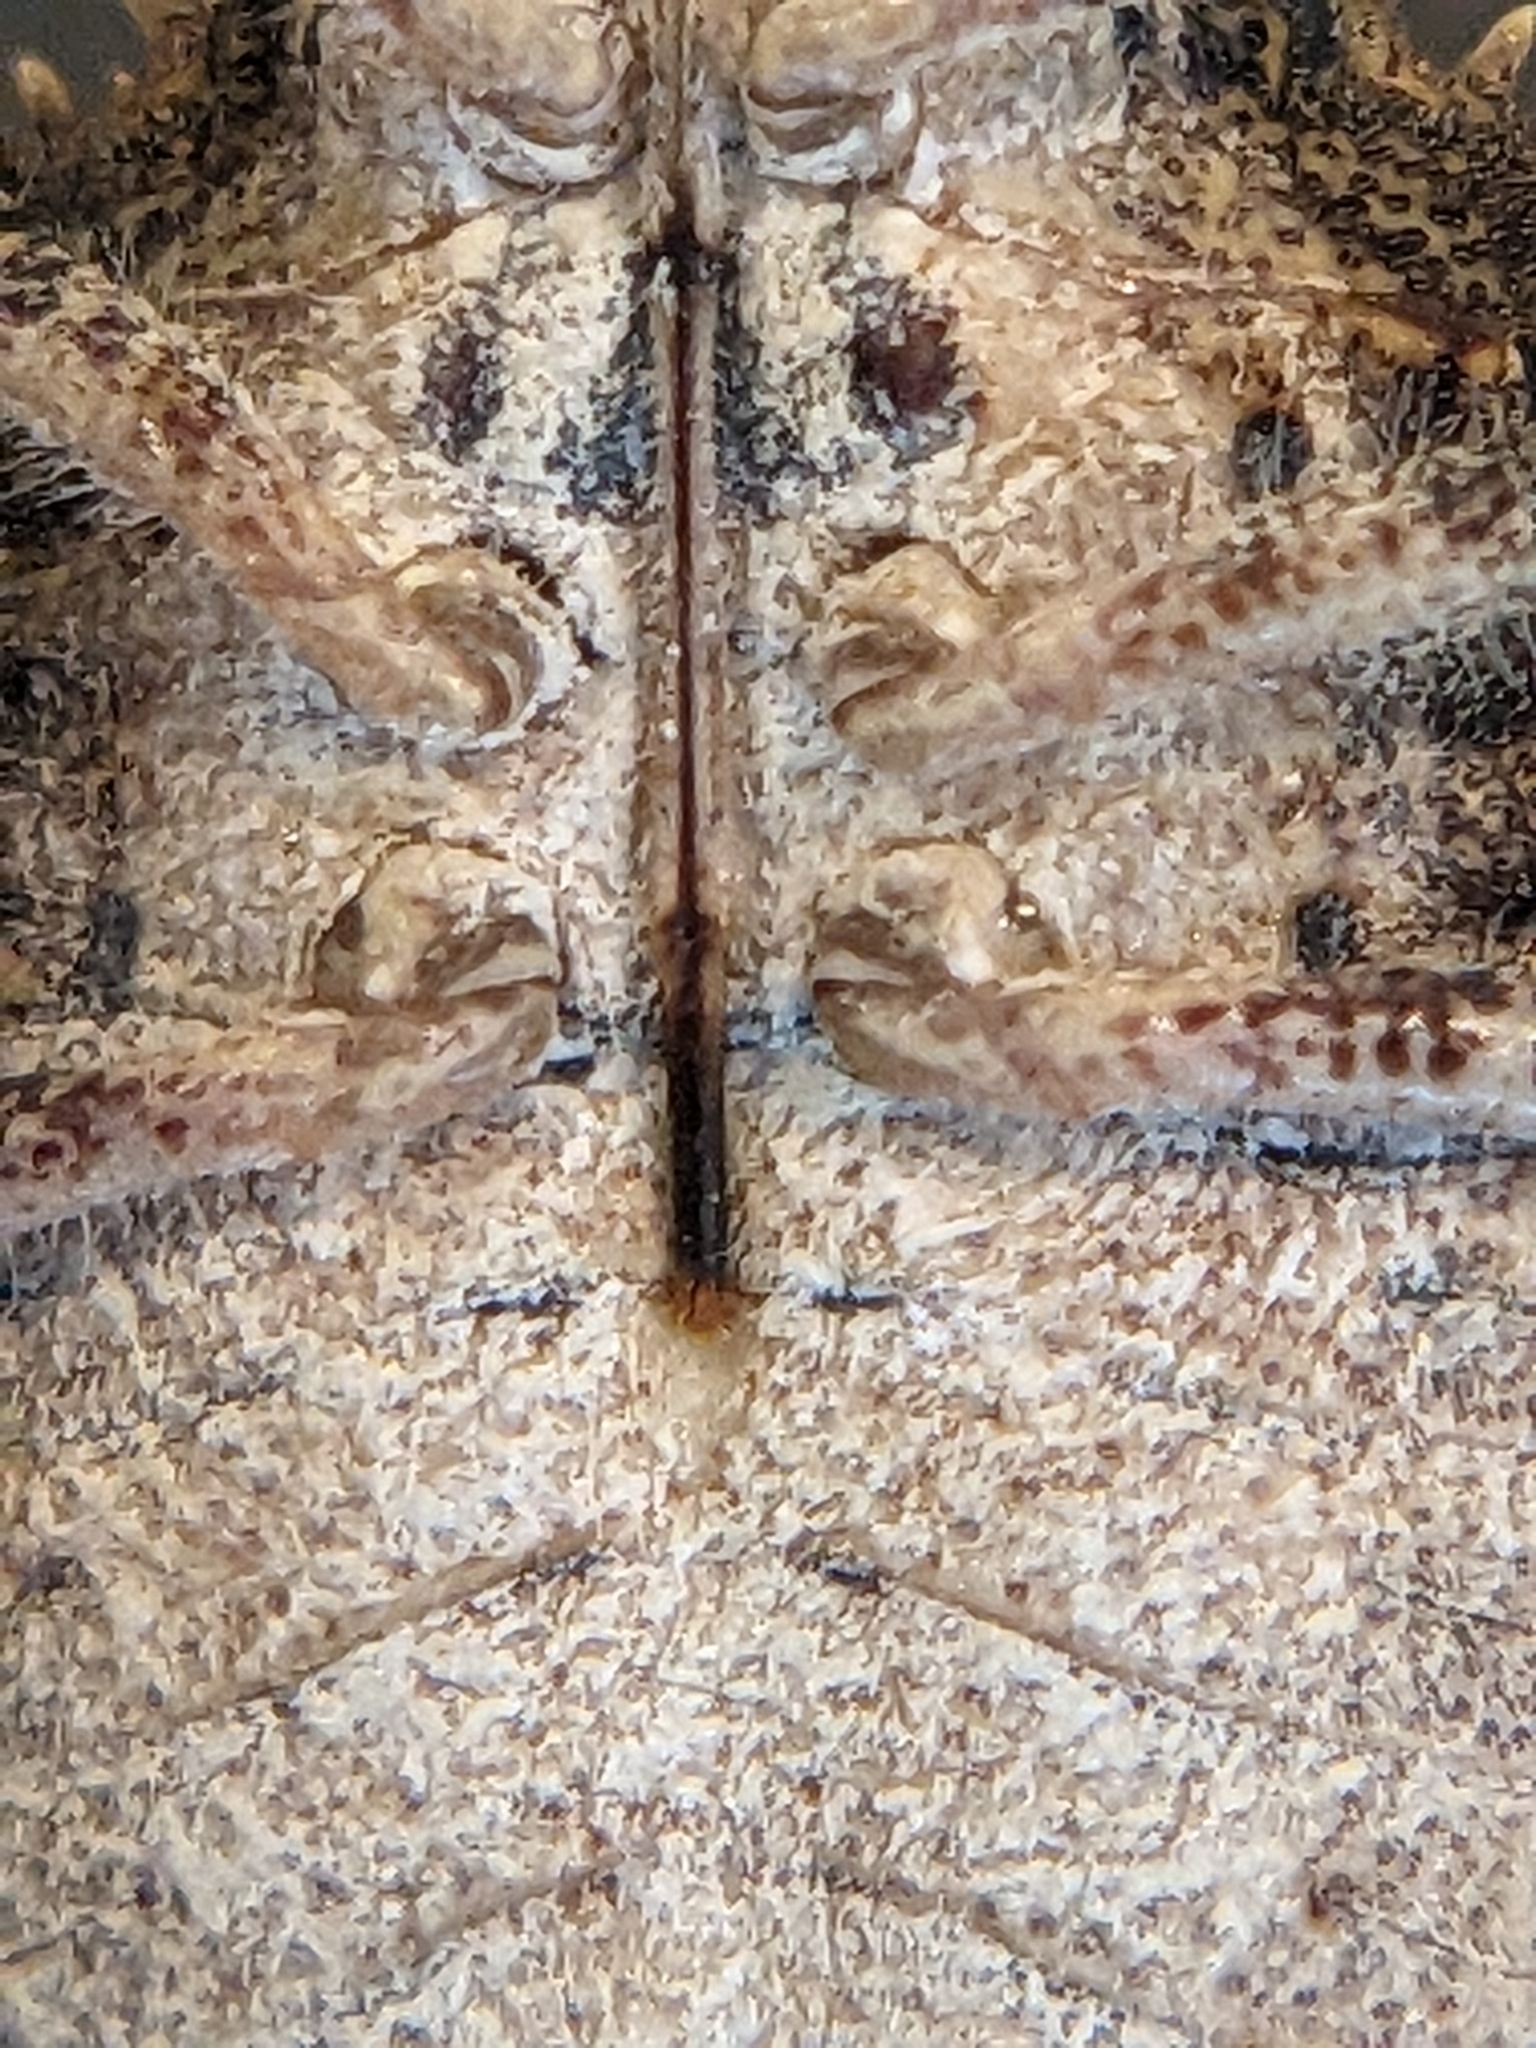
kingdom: Animalia
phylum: Arthropoda
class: Insecta
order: Hemiptera
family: Pentatomidae
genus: Brochymena
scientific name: Brochymena arborea
